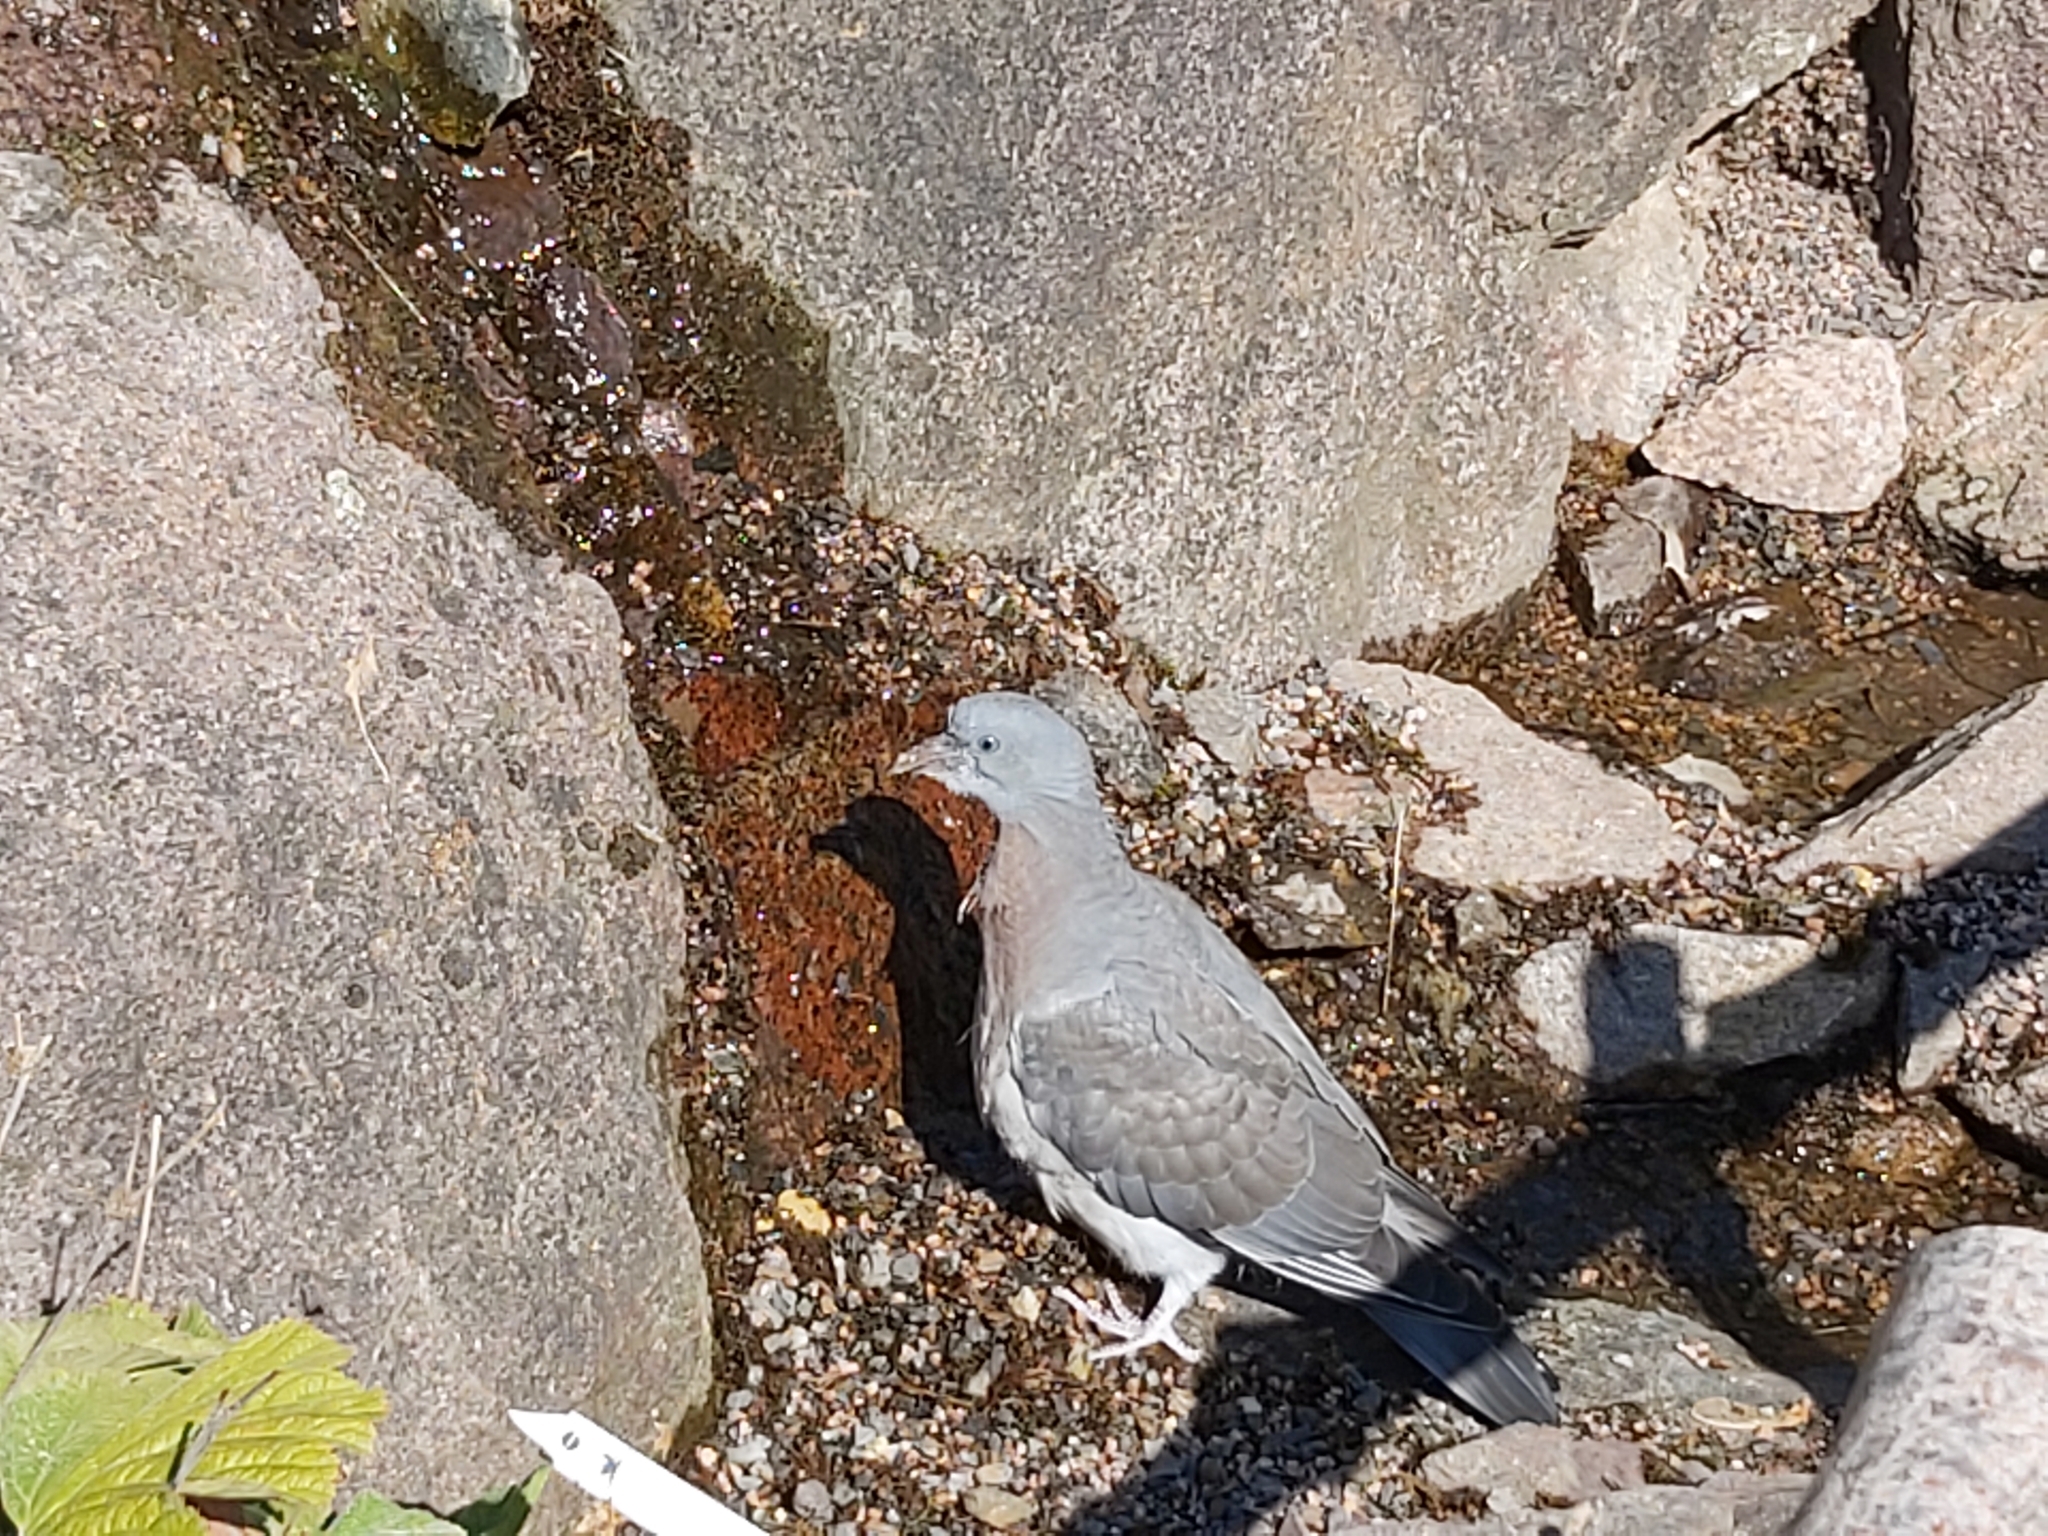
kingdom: Animalia
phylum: Chordata
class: Aves
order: Columbiformes
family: Columbidae
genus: Columba
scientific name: Columba palumbus
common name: Common wood pigeon
